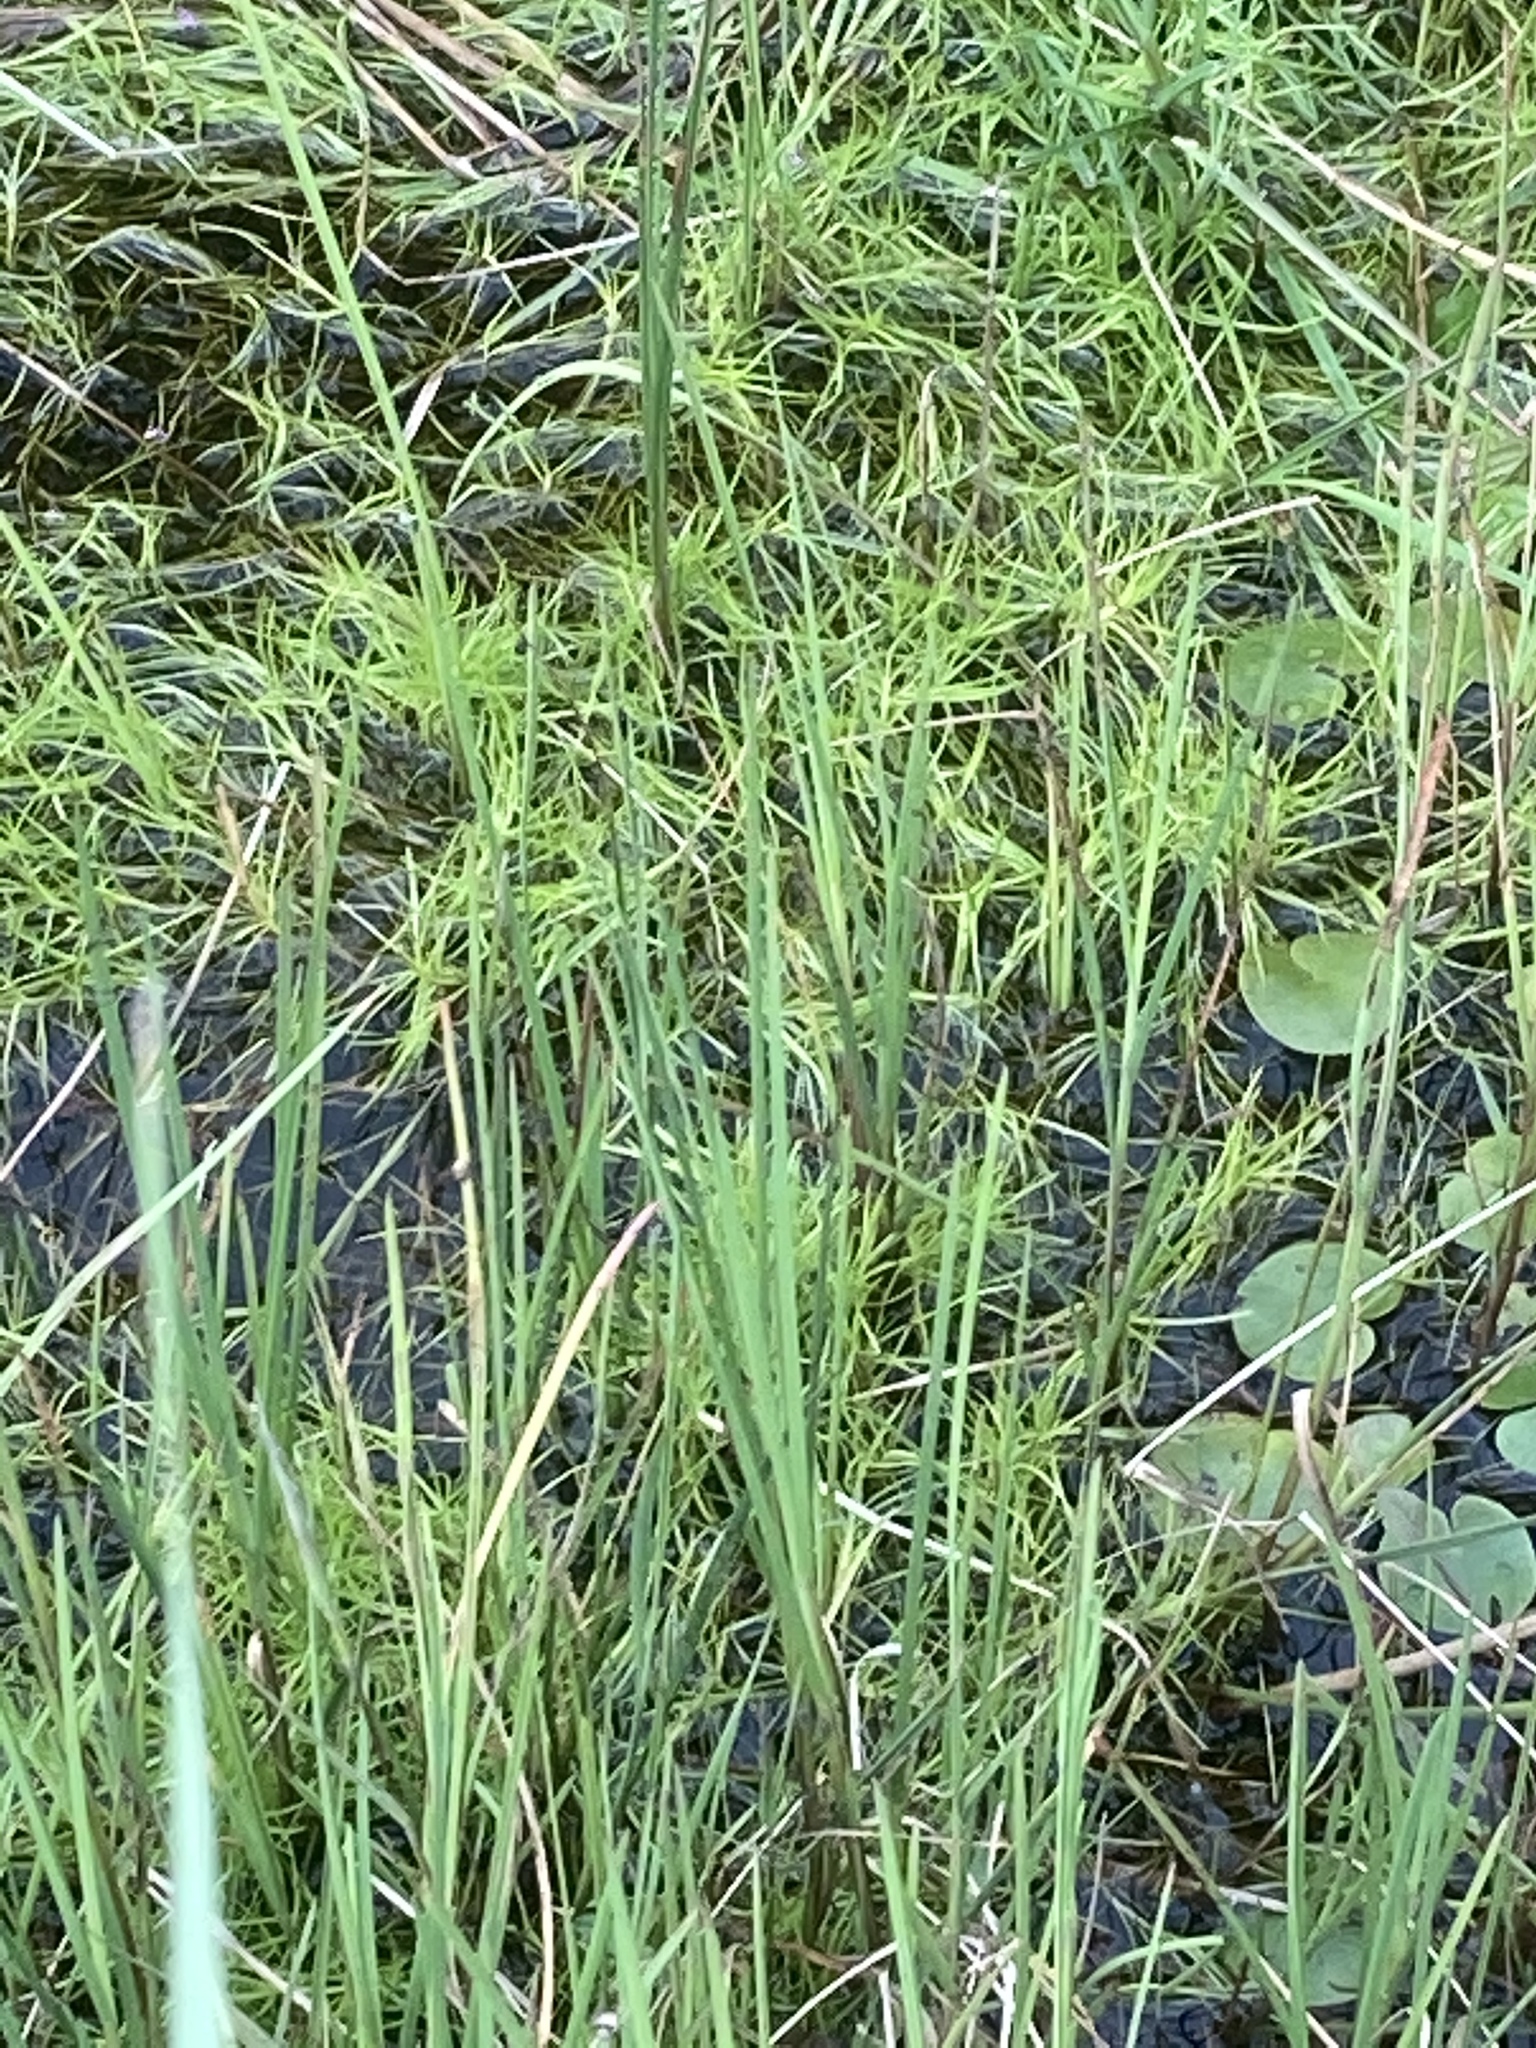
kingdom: Plantae
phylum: Tracheophyta
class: Liliopsida
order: Poales
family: Cyperaceae
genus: Isolepis
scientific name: Isolepis fluitans
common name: Floating club-rush
